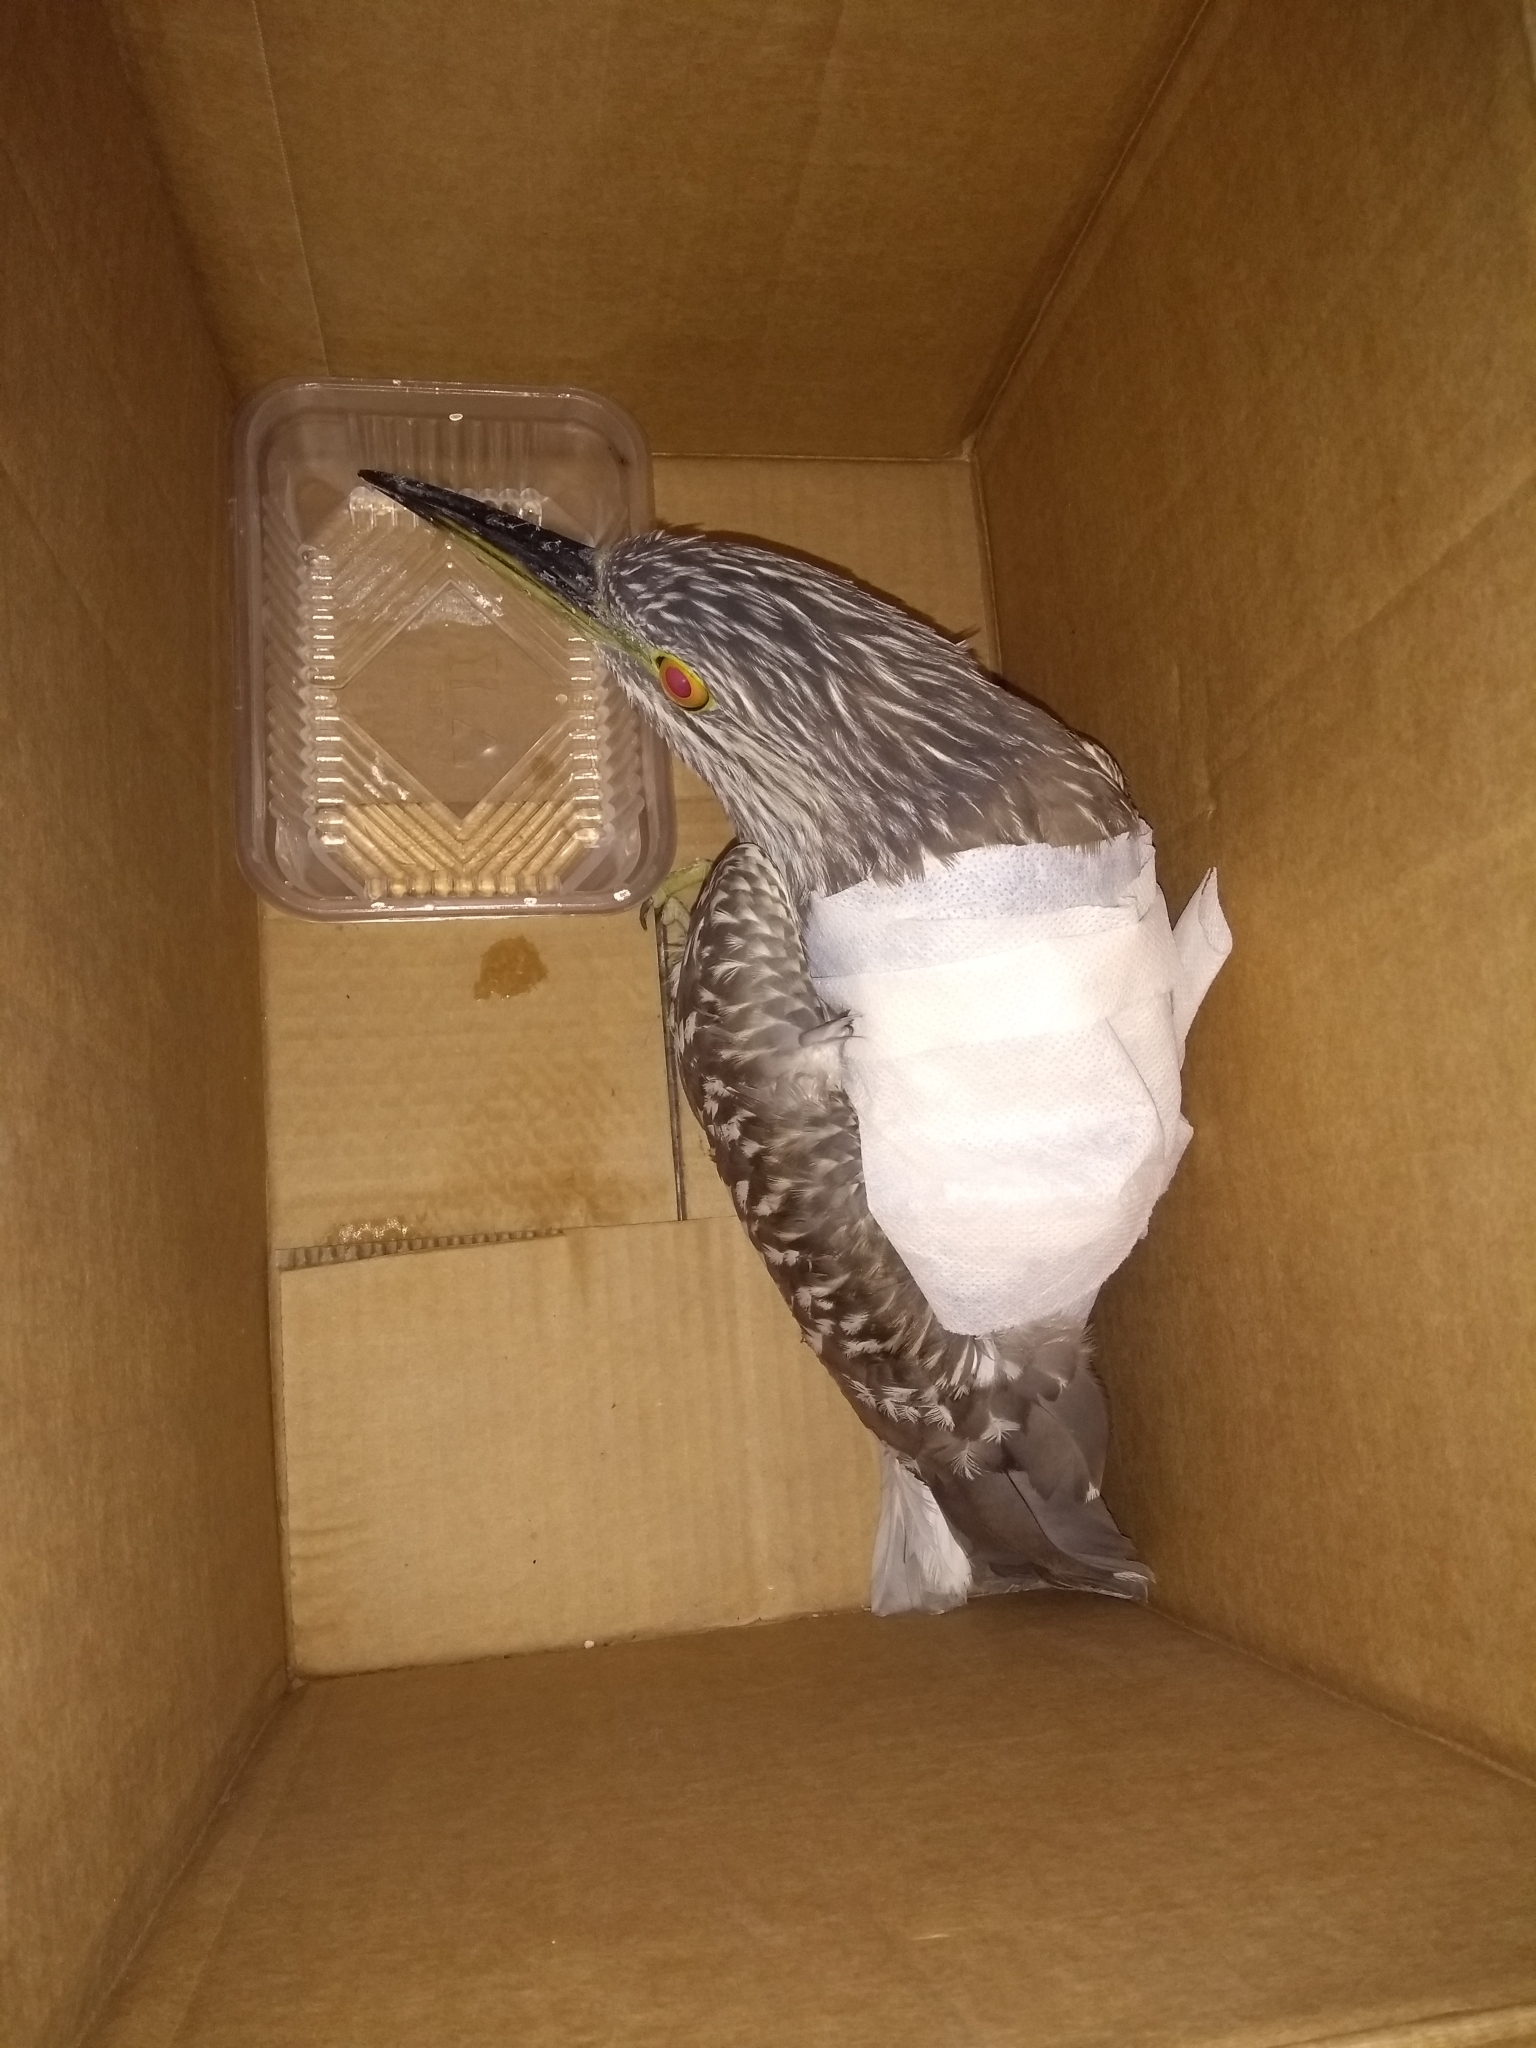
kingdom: Animalia
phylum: Chordata
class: Aves
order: Pelecaniformes
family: Ardeidae
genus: Nycticorax
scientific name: Nycticorax nycticorax
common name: Black-crowned night heron
